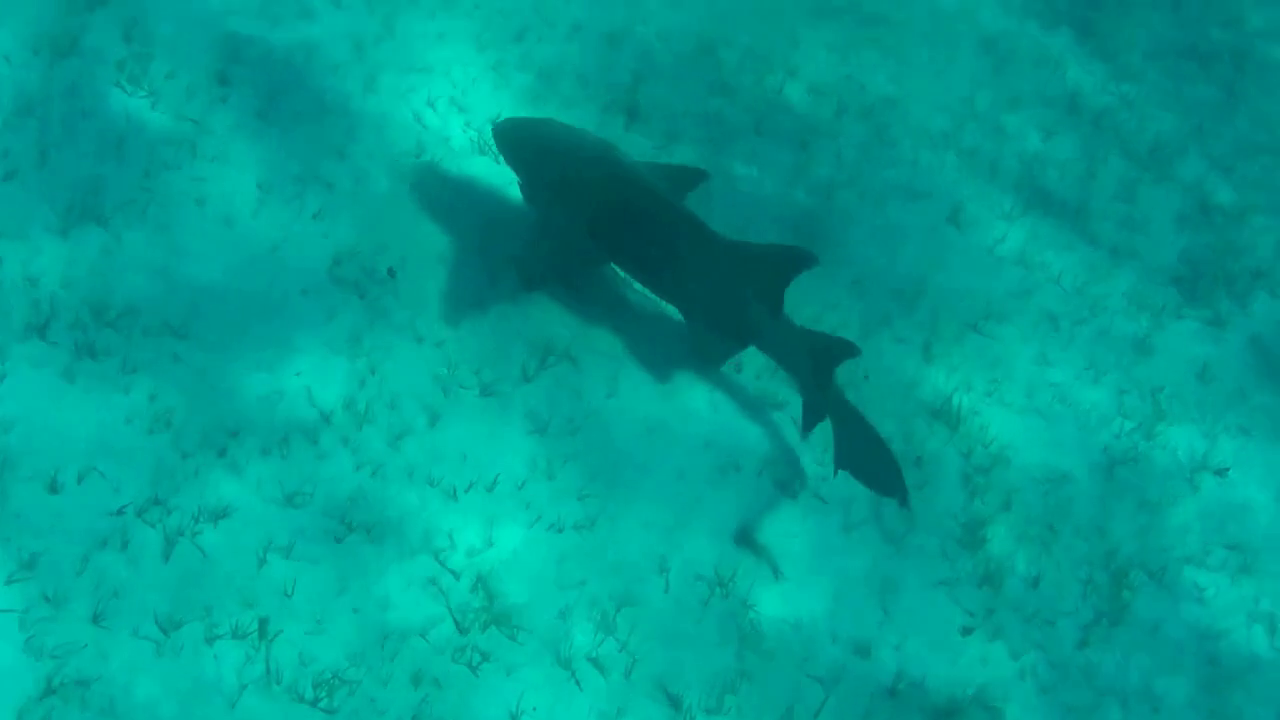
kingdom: Animalia
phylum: Chordata
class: Elasmobranchii
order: Orectolobiformes
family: Ginglymostomatidae
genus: Ginglymostoma
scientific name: Ginglymostoma cirratum
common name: Nurse shark
